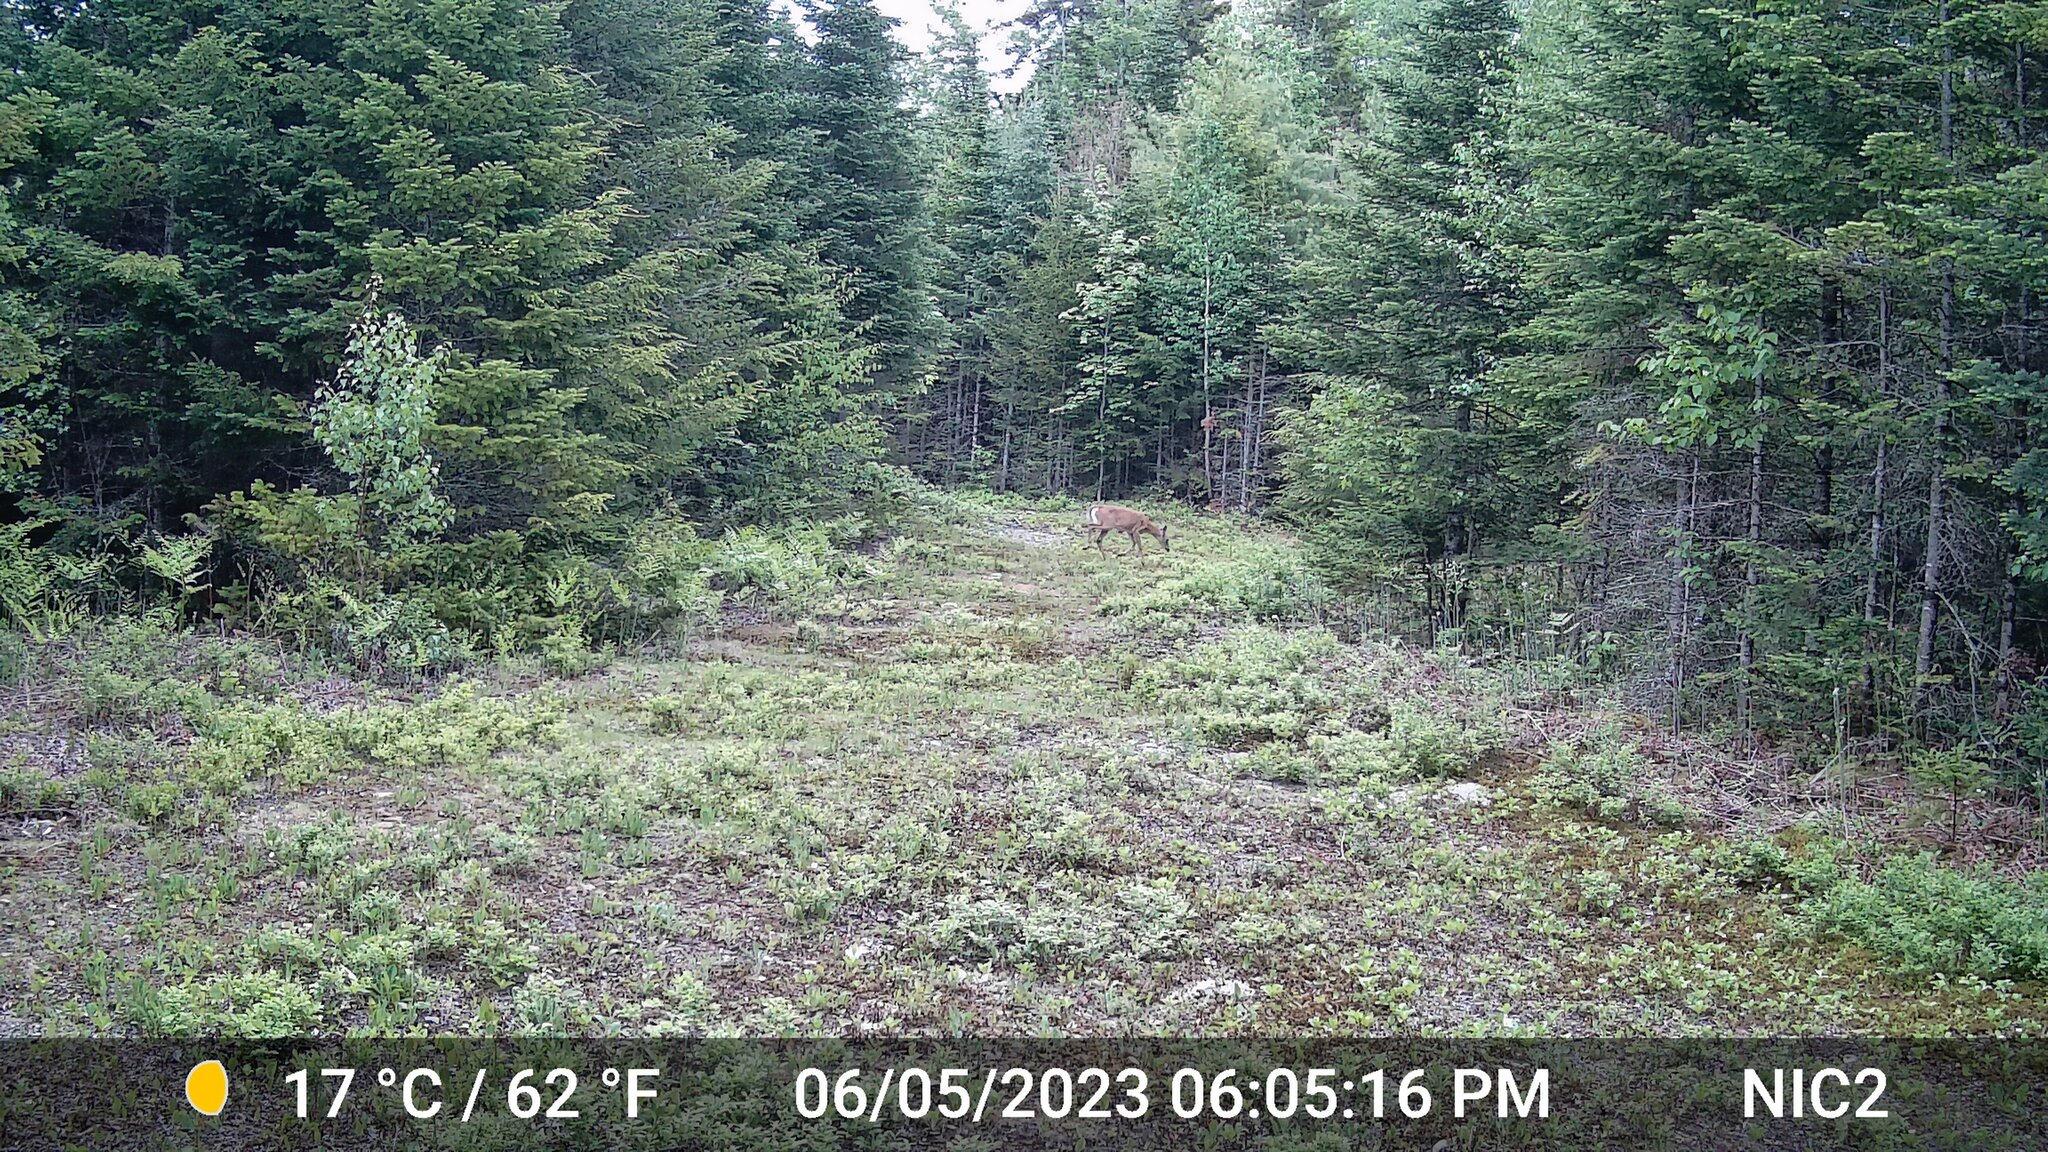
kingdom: Animalia
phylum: Chordata
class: Mammalia
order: Artiodactyla
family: Cervidae
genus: Odocoileus
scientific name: Odocoileus virginianus
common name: White-tailed deer
